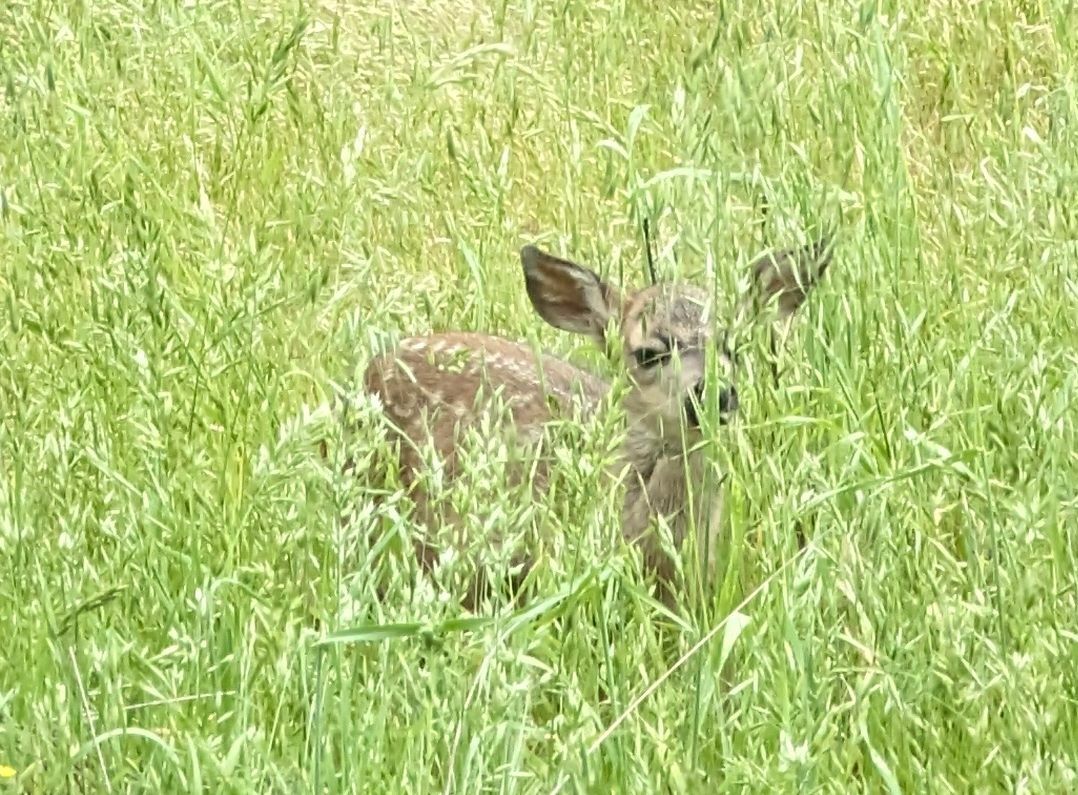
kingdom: Animalia
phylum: Chordata
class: Mammalia
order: Artiodactyla
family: Cervidae
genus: Odocoileus
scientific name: Odocoileus hemionus
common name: Mule deer
